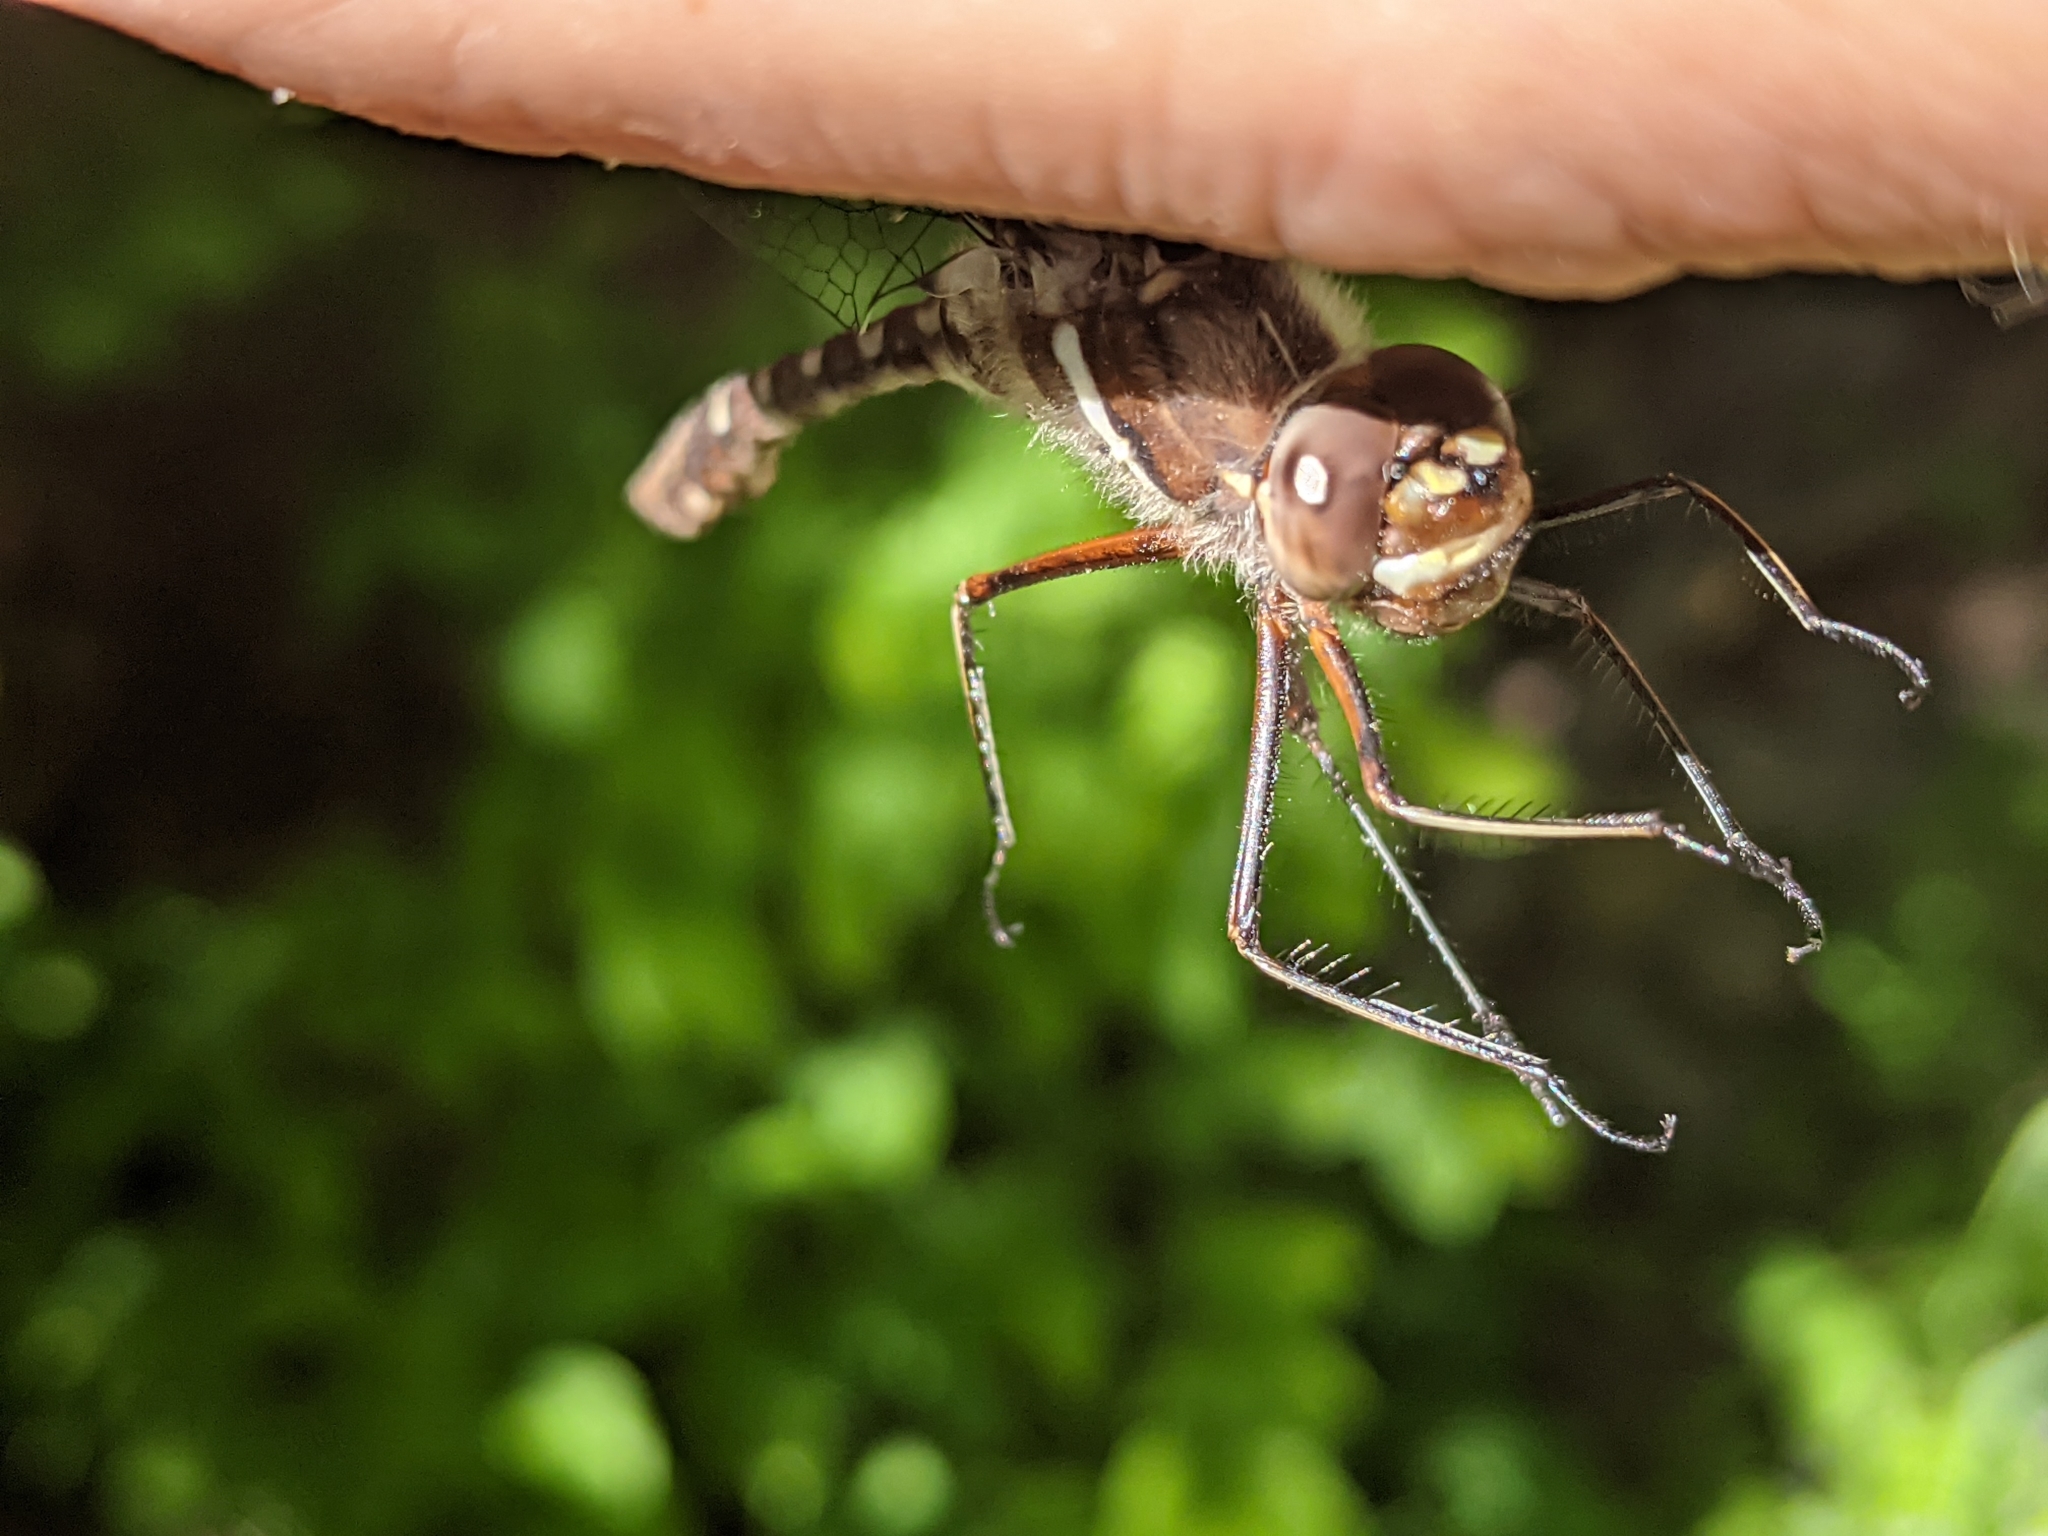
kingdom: Animalia
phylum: Arthropoda
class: Insecta
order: Odonata
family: Macromiidae
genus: Didymops
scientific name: Didymops transversa
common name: Stream cruiser
